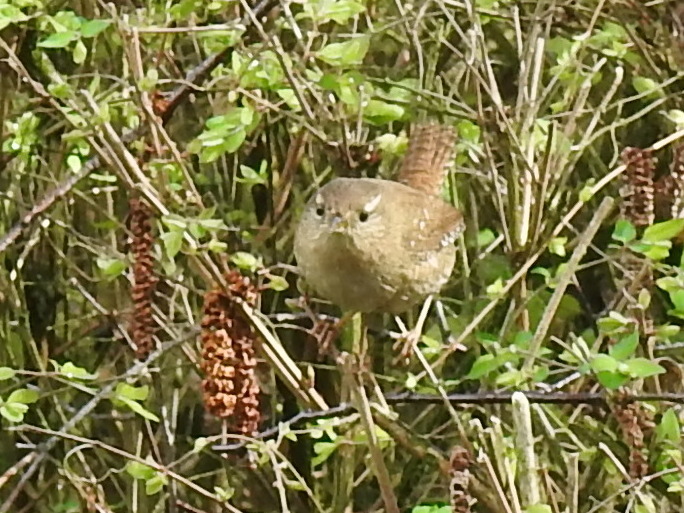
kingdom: Animalia
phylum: Chordata
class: Aves
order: Passeriformes
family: Troglodytidae
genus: Troglodytes
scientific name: Troglodytes troglodytes
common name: Eurasian wren
